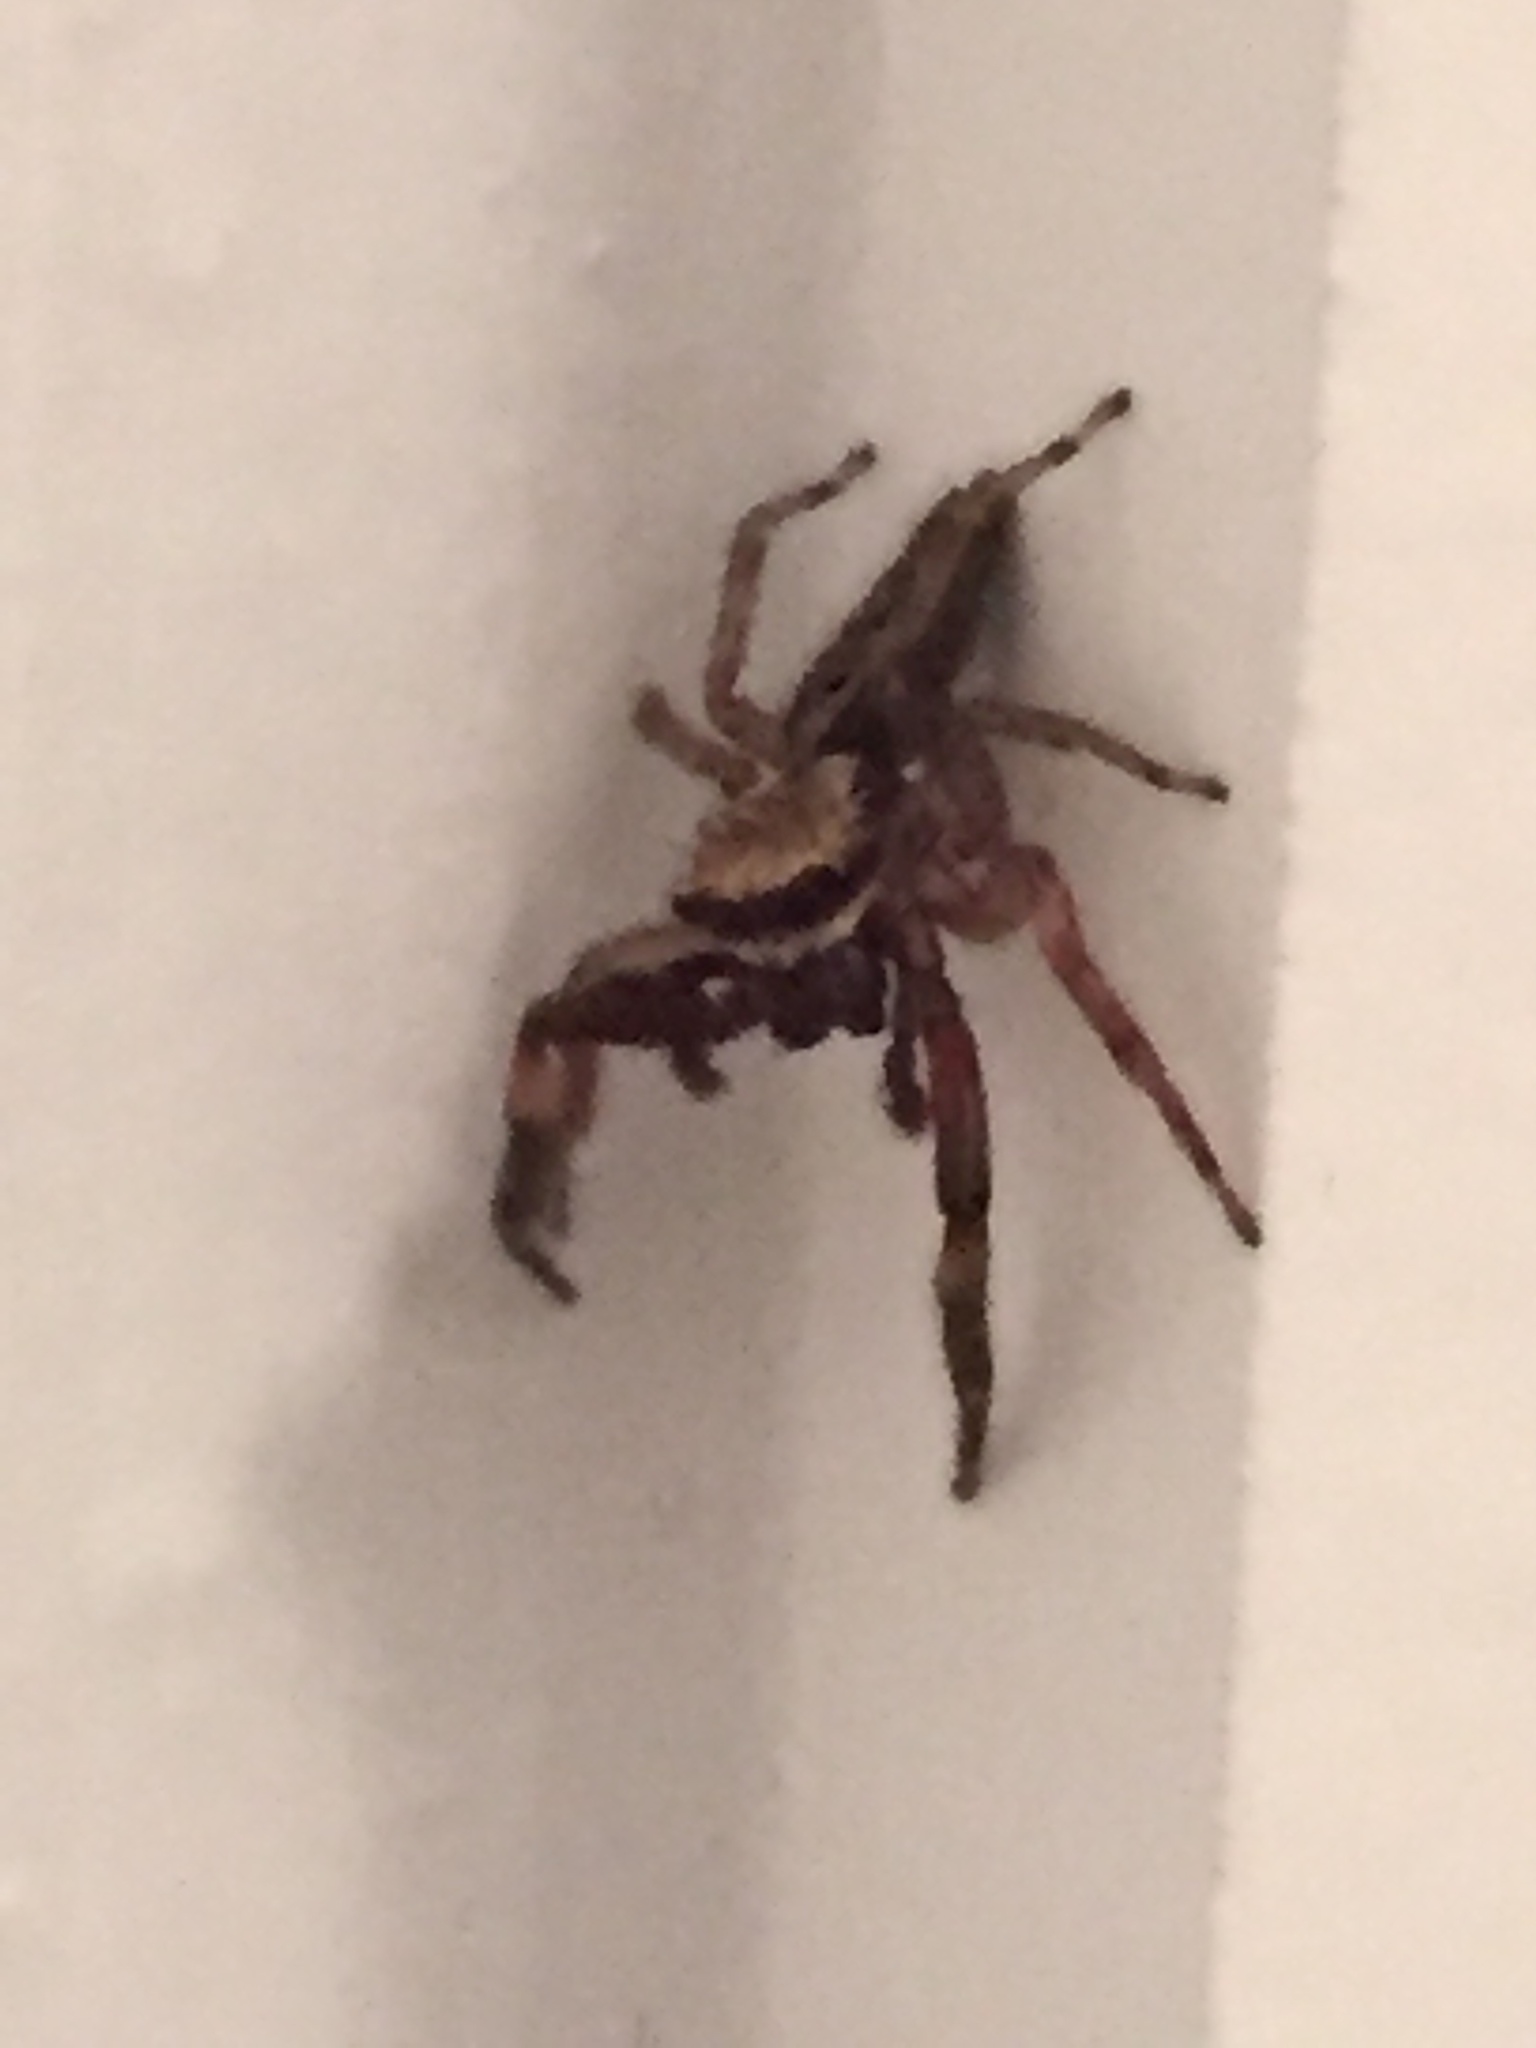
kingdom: Animalia
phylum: Arthropoda
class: Arachnida
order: Araneae
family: Salticidae
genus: Trite
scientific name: Trite auricoma
